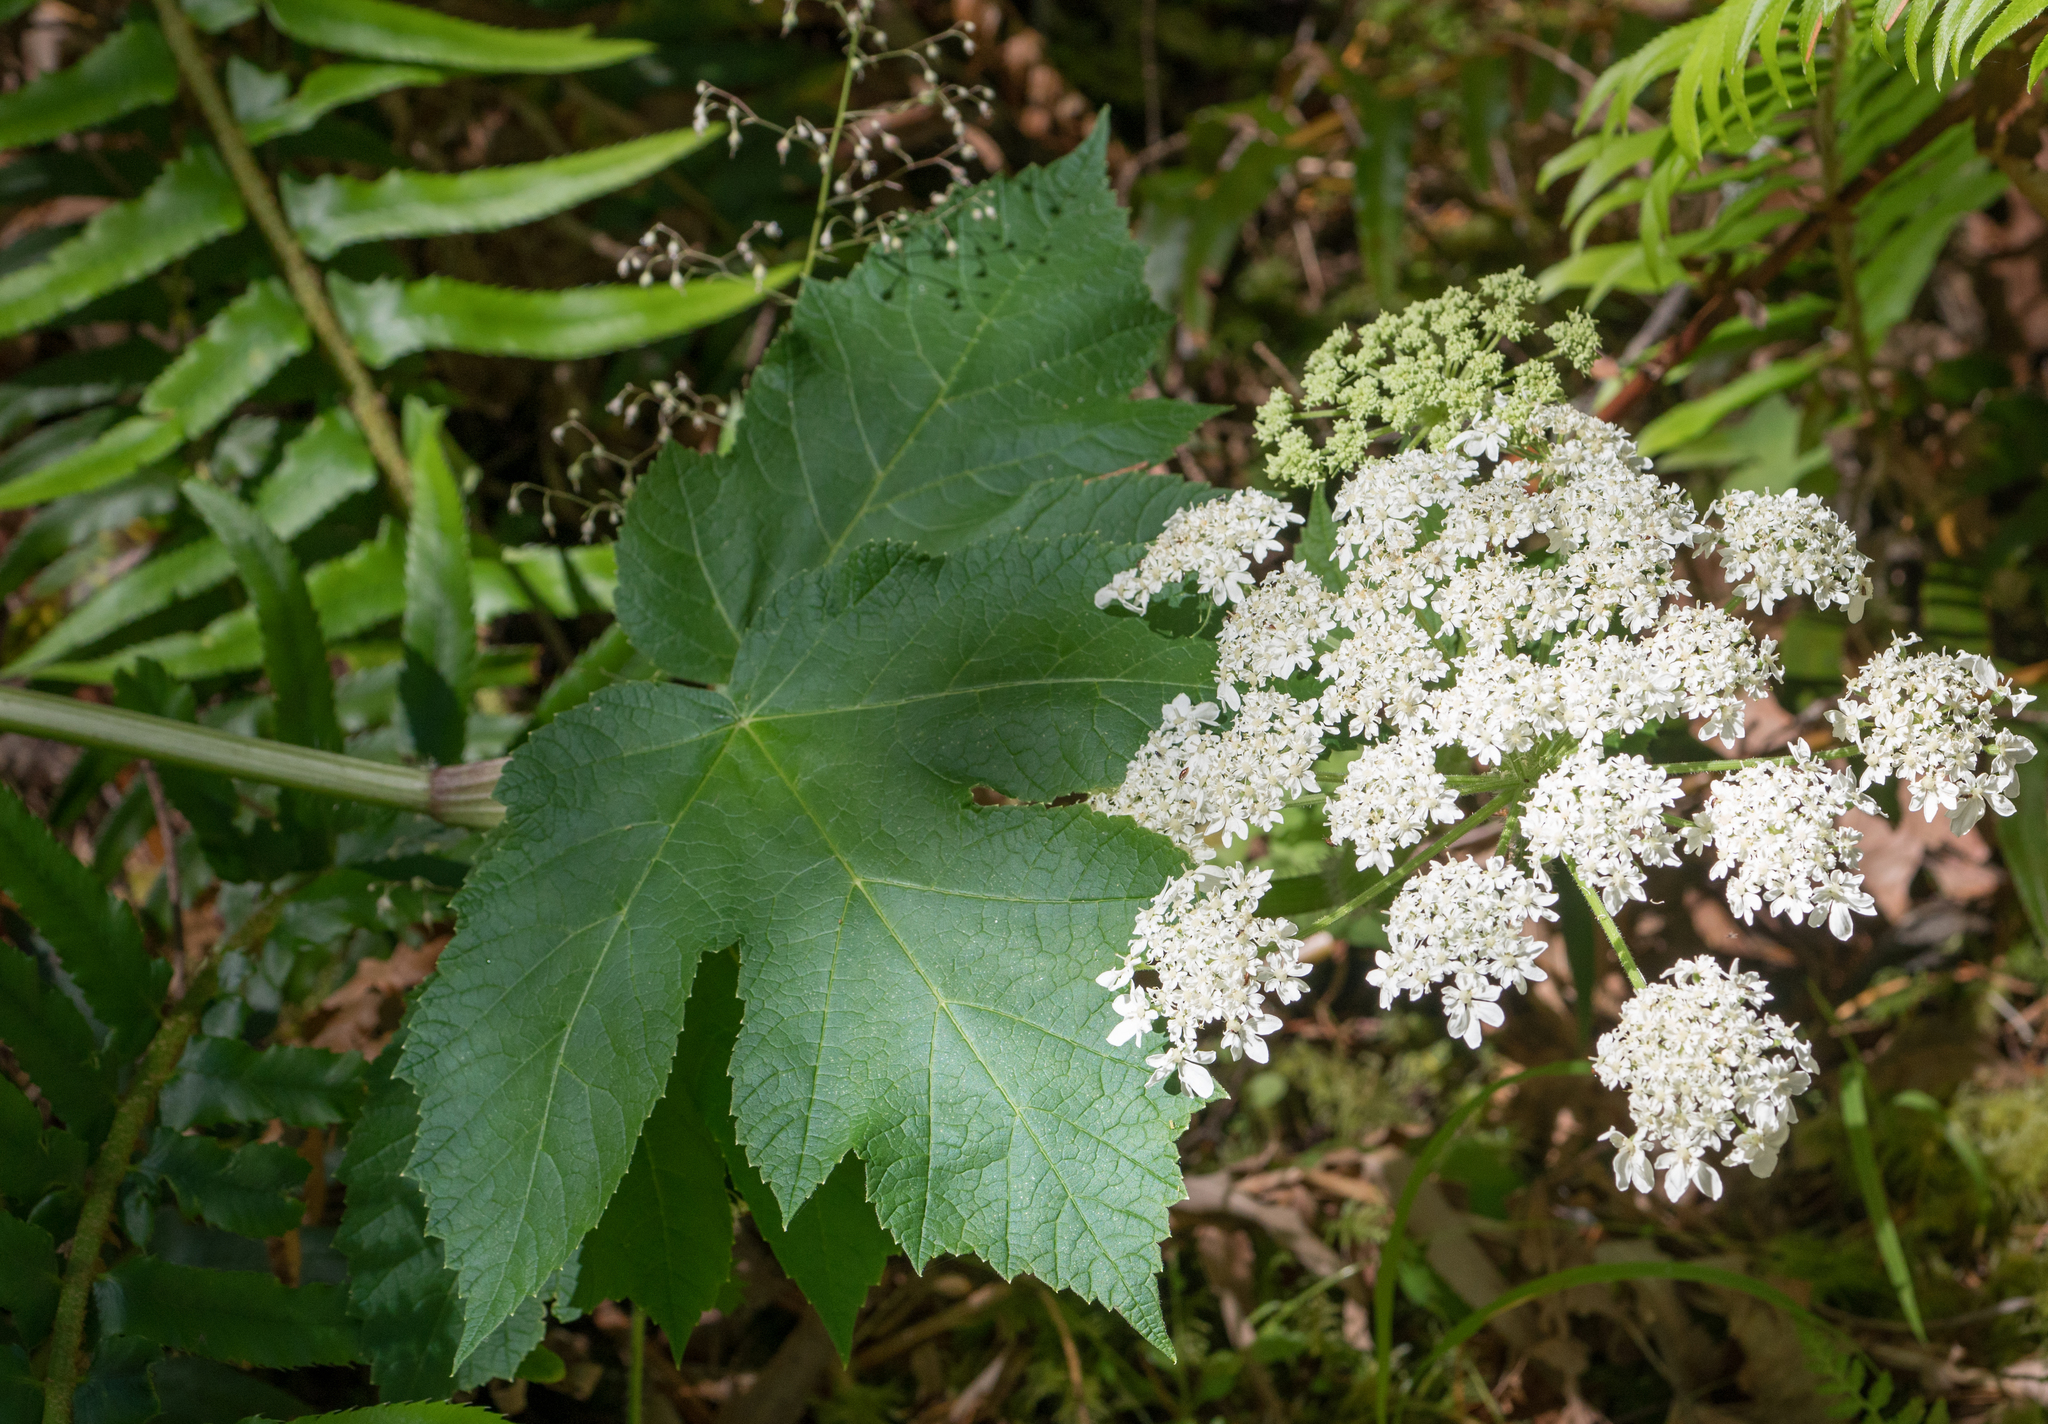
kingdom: Plantae
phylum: Tracheophyta
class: Magnoliopsida
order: Apiales
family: Apiaceae
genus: Heracleum
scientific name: Heracleum maximum
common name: American cow parsnip
